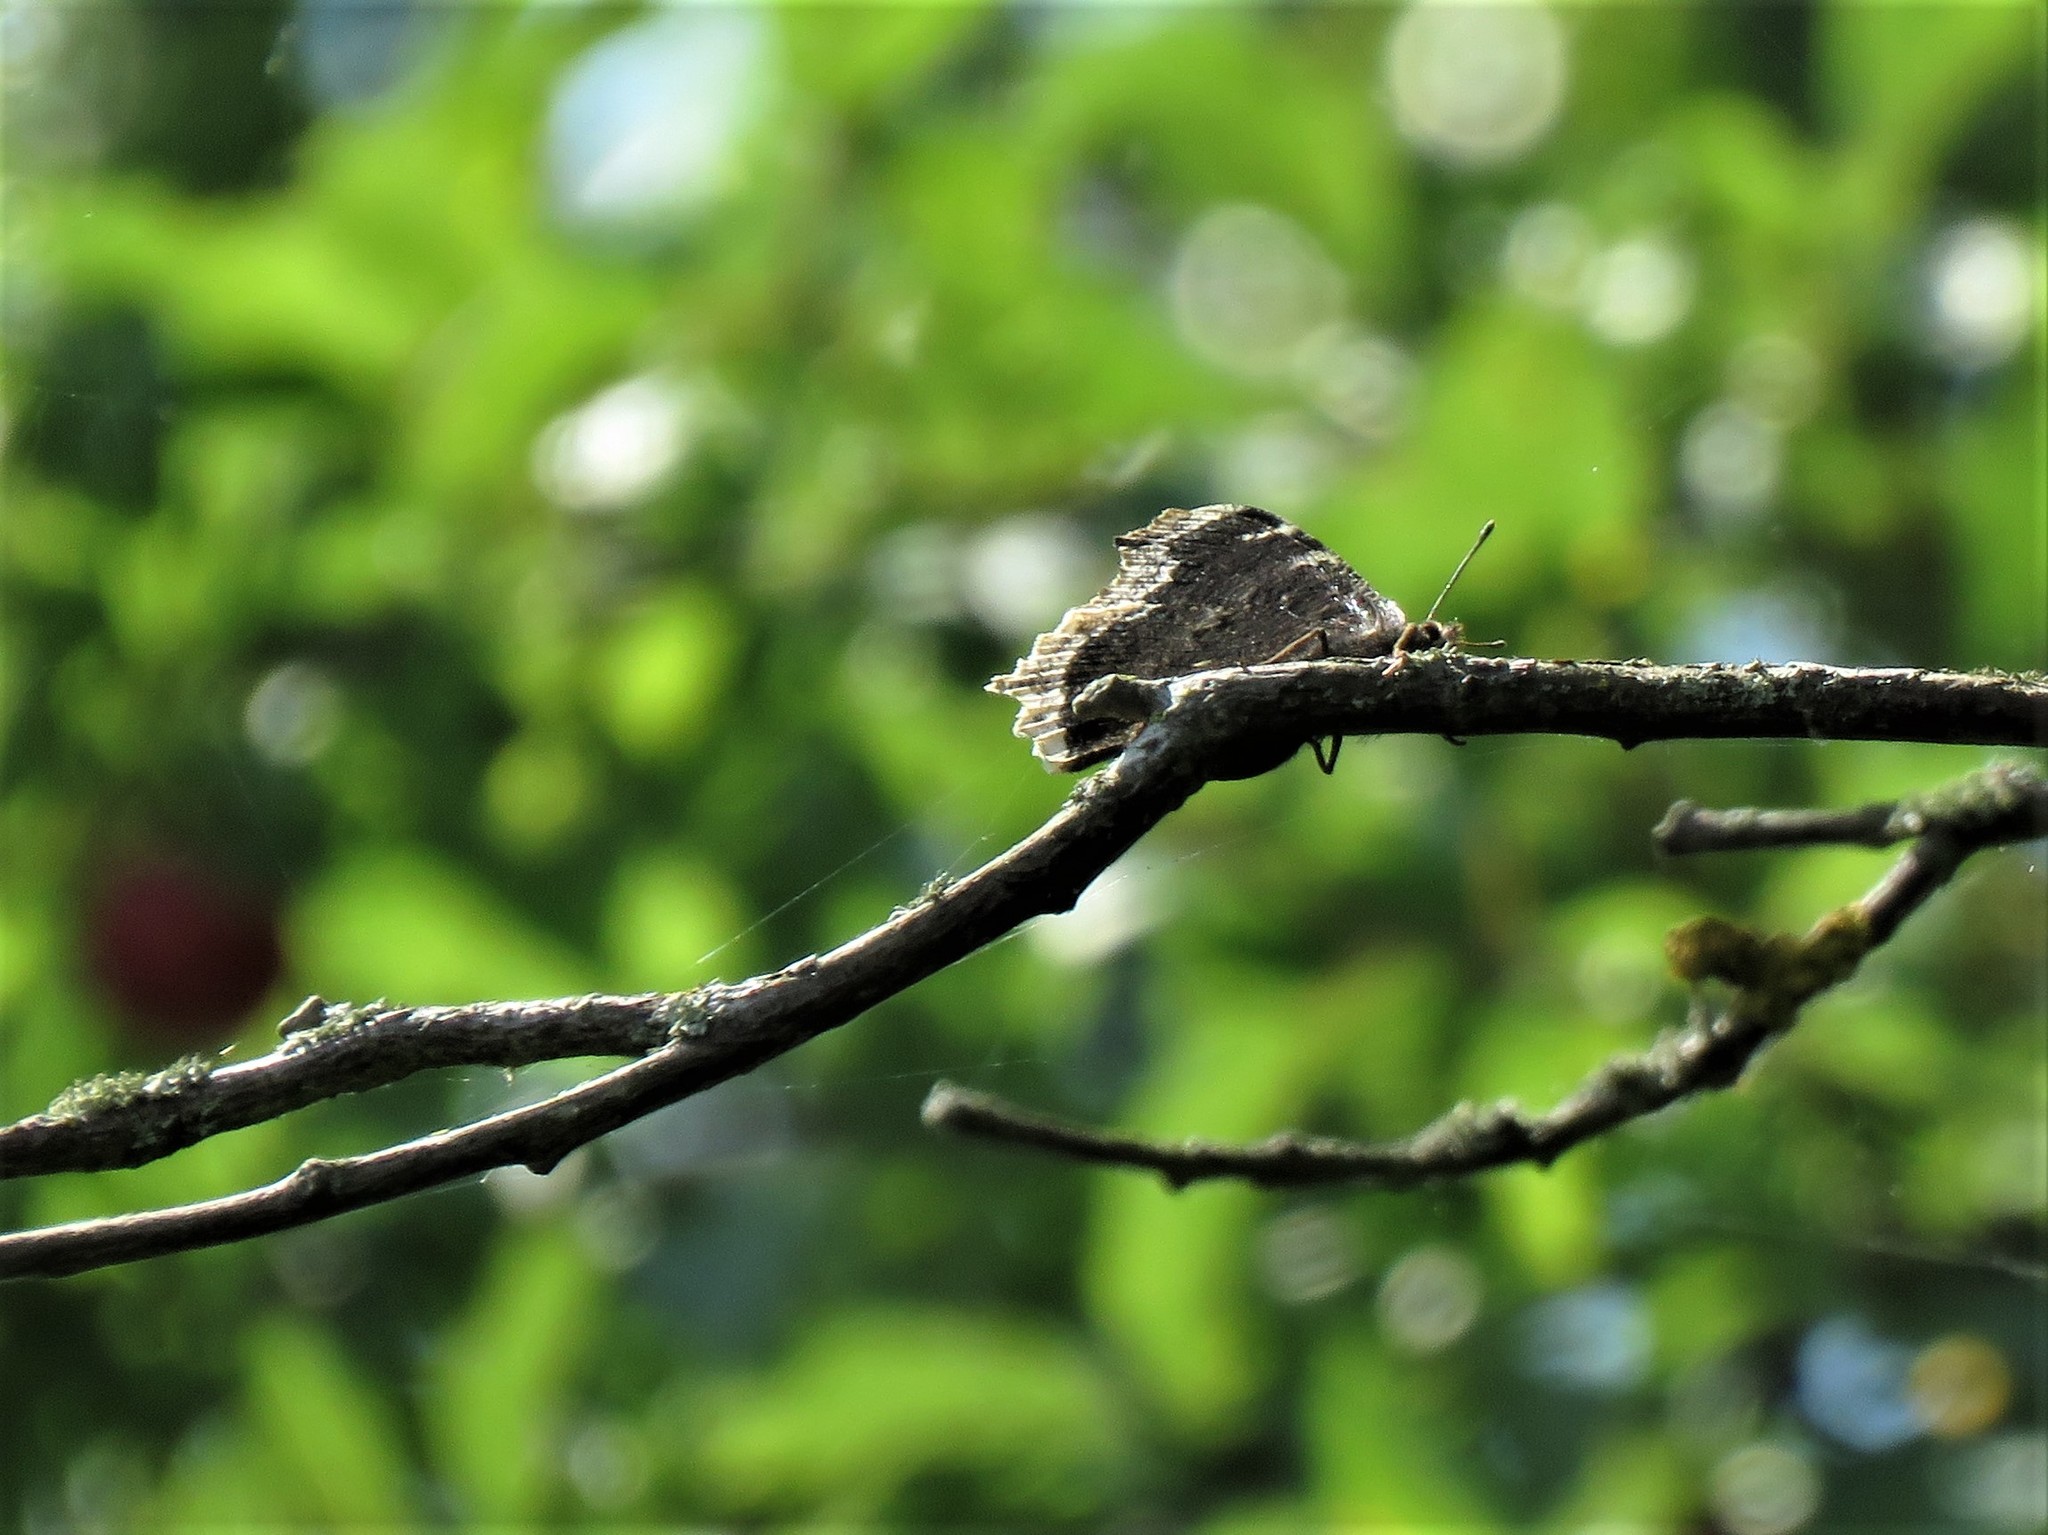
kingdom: Animalia
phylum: Arthropoda
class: Insecta
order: Lepidoptera
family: Nymphalidae
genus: Nymphalis
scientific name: Nymphalis antiopa
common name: Camberwell beauty
